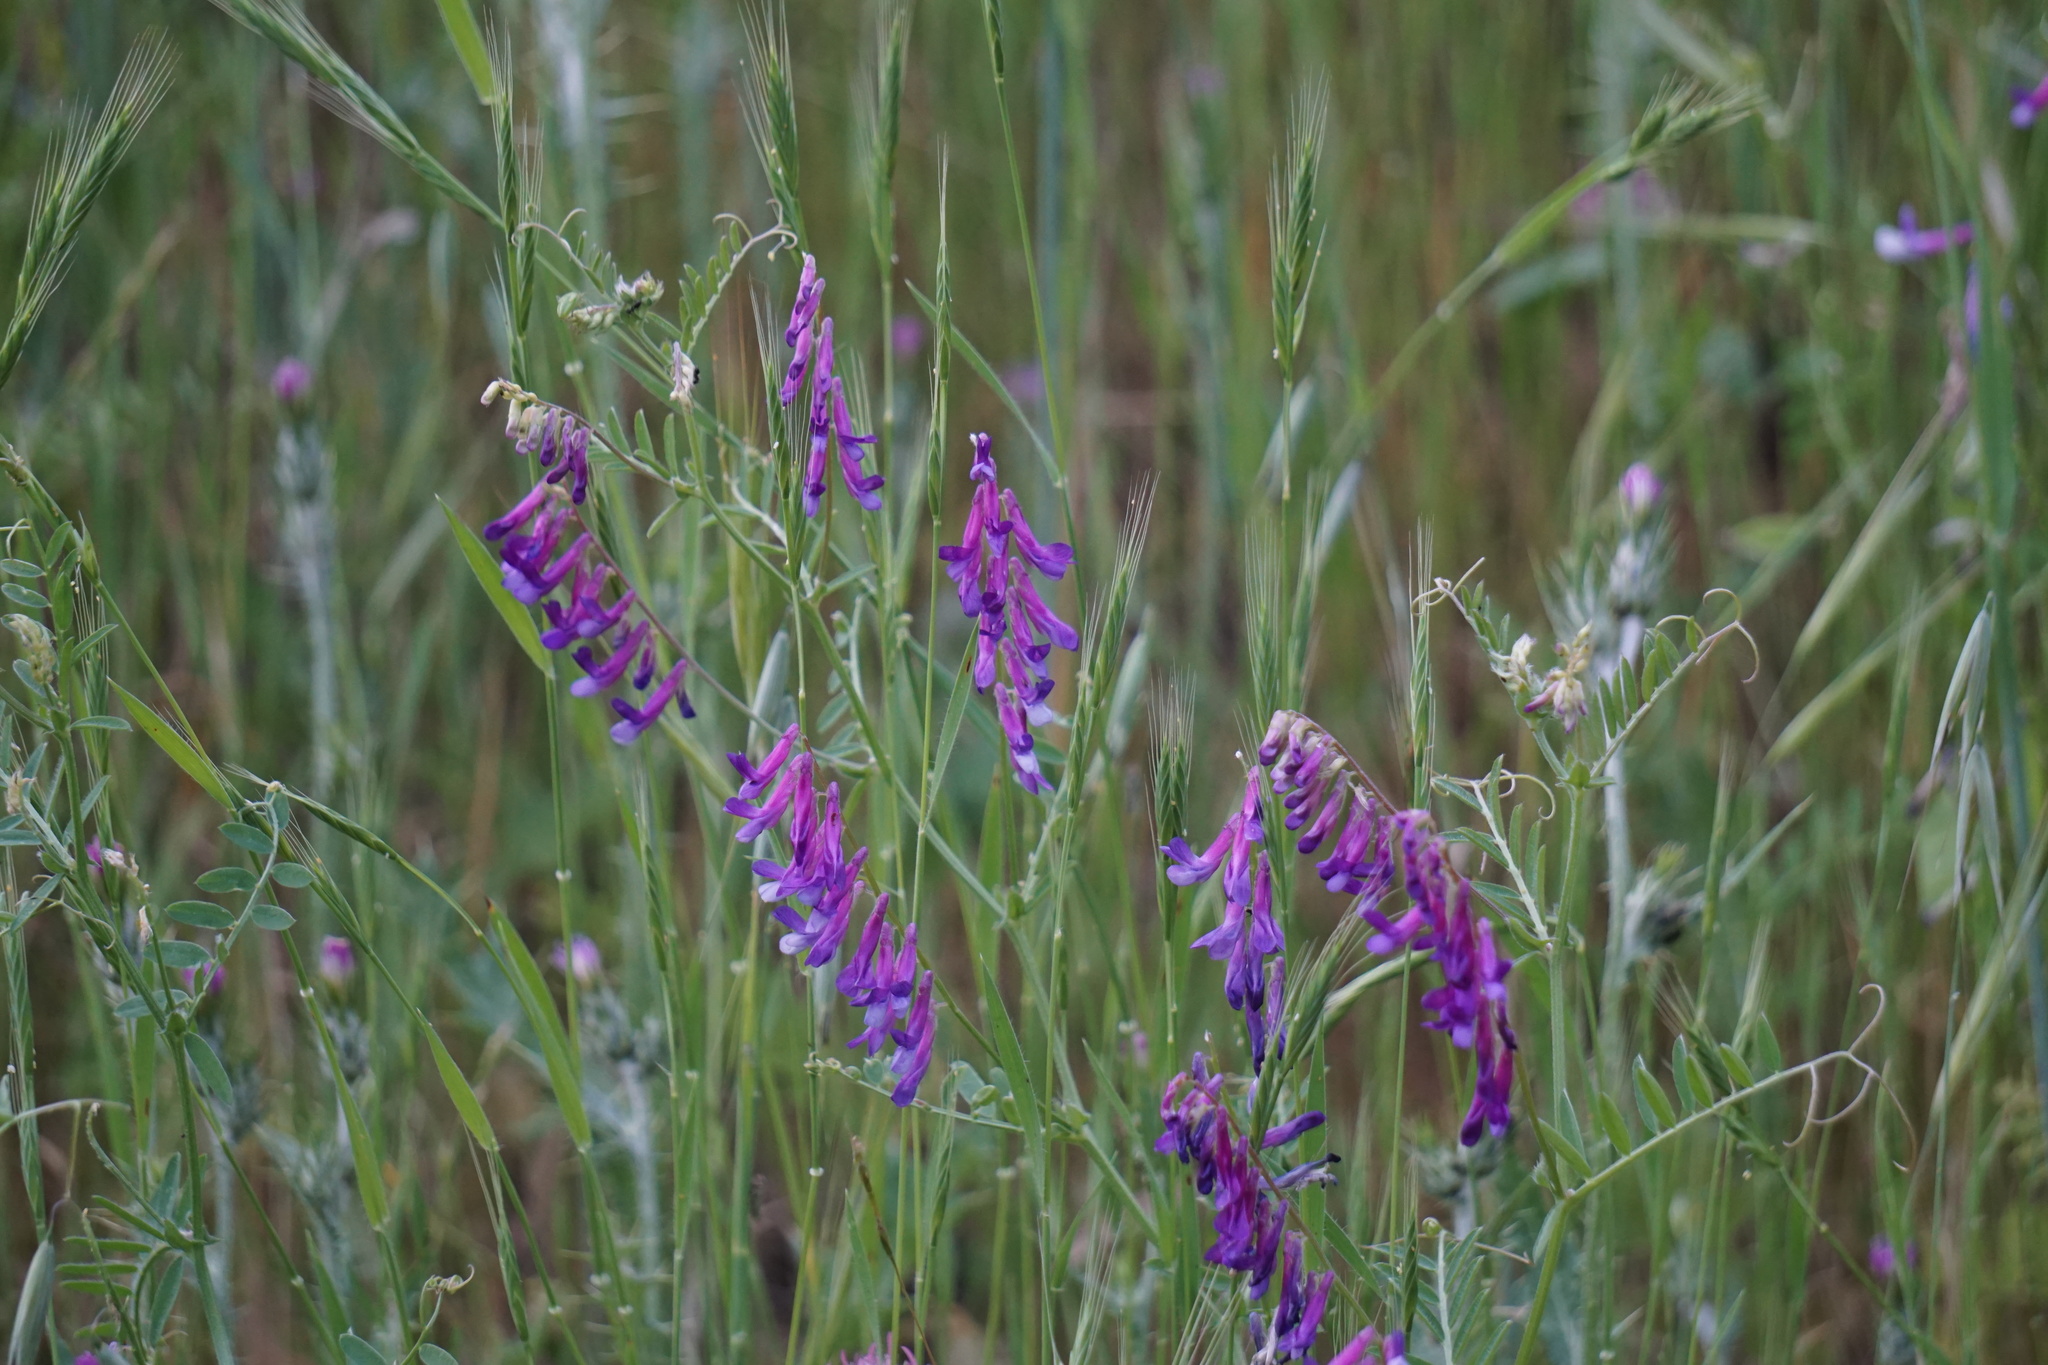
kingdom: Plantae
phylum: Tracheophyta
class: Magnoliopsida
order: Fabales
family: Fabaceae
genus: Vicia
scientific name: Vicia villosa
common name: Fodder vetch
